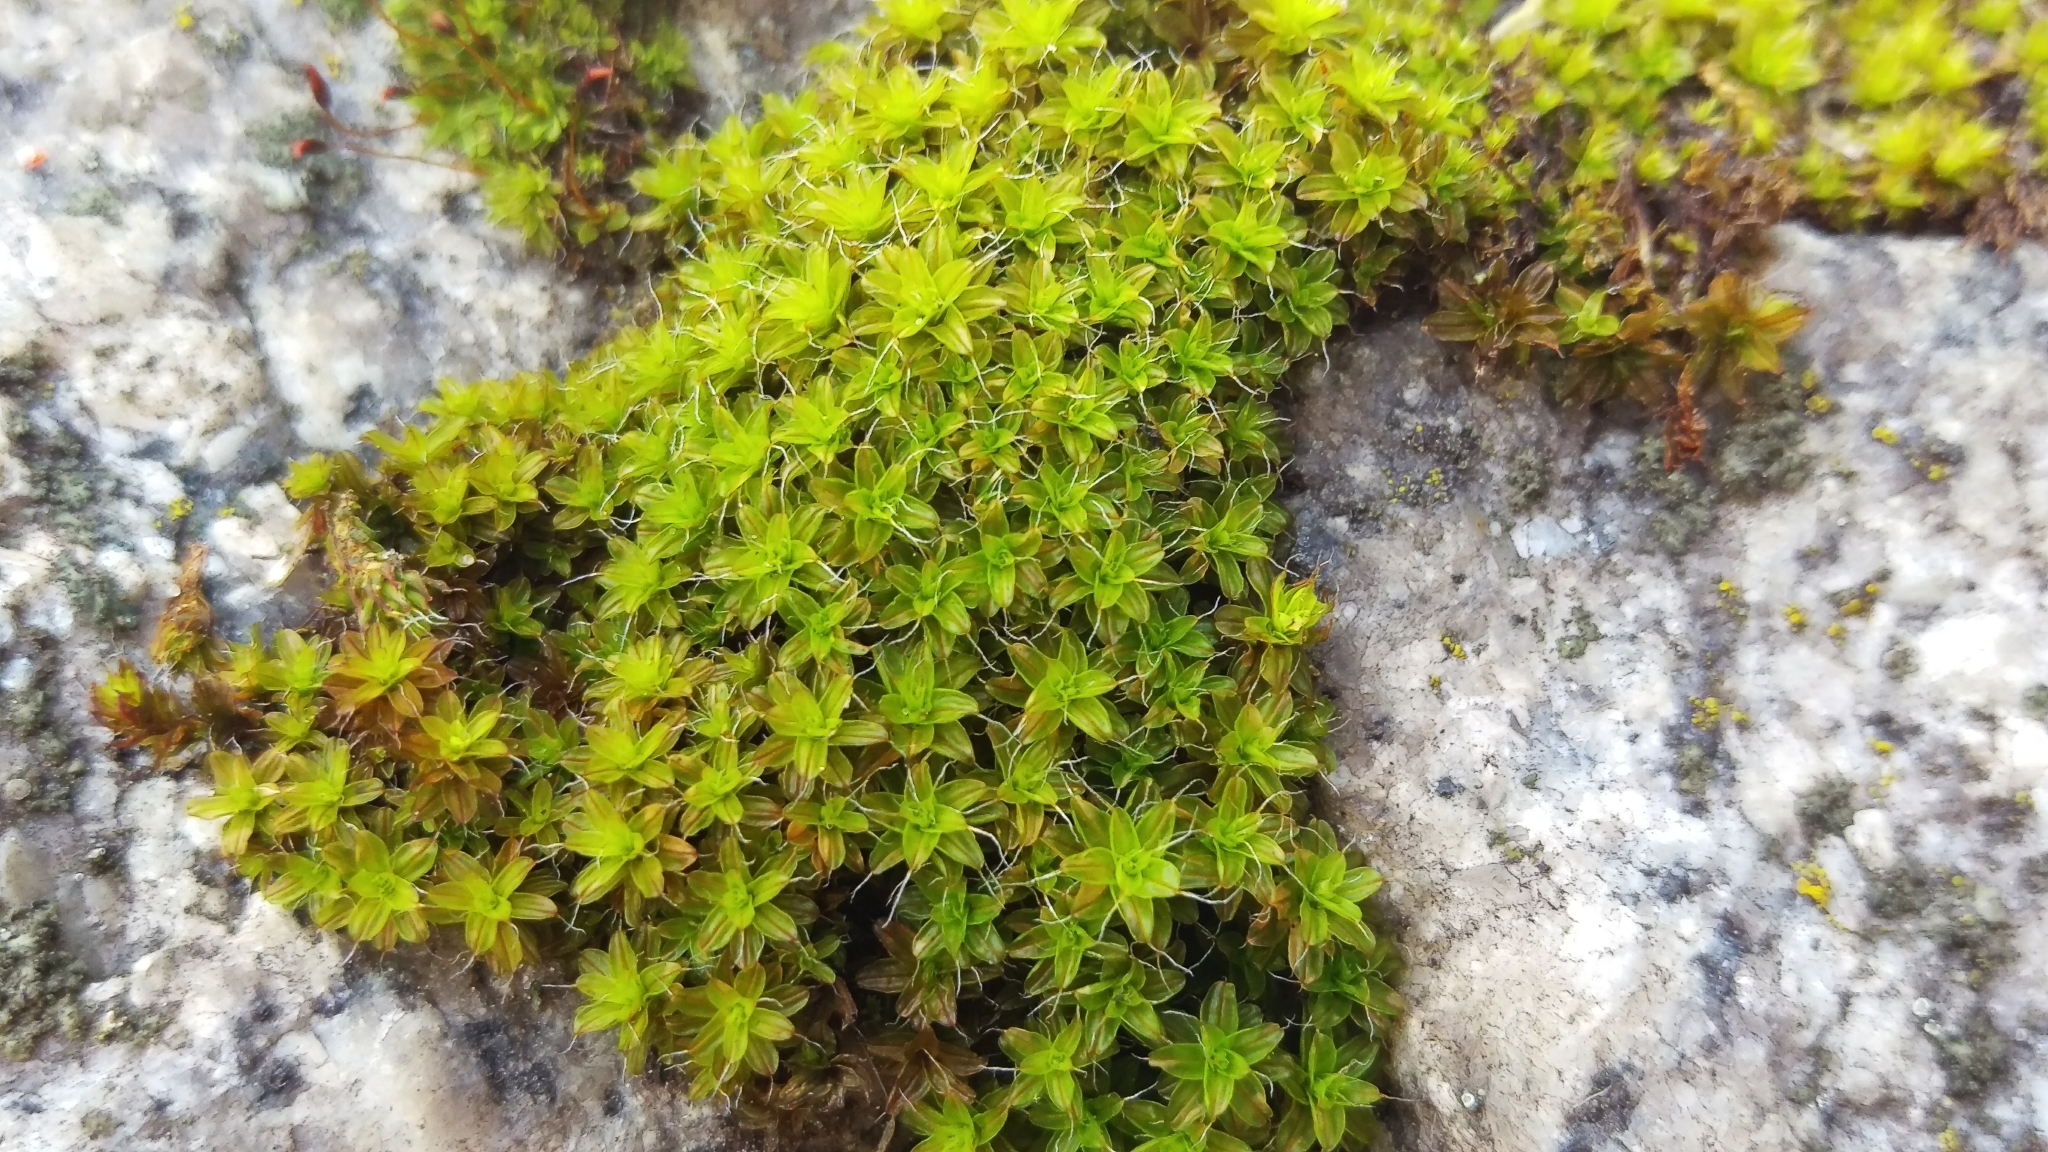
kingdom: Plantae
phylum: Bryophyta
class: Bryopsida
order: Pottiales
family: Pottiaceae
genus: Syntrichia
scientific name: Syntrichia ruralis
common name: Sidewalk screw moss
